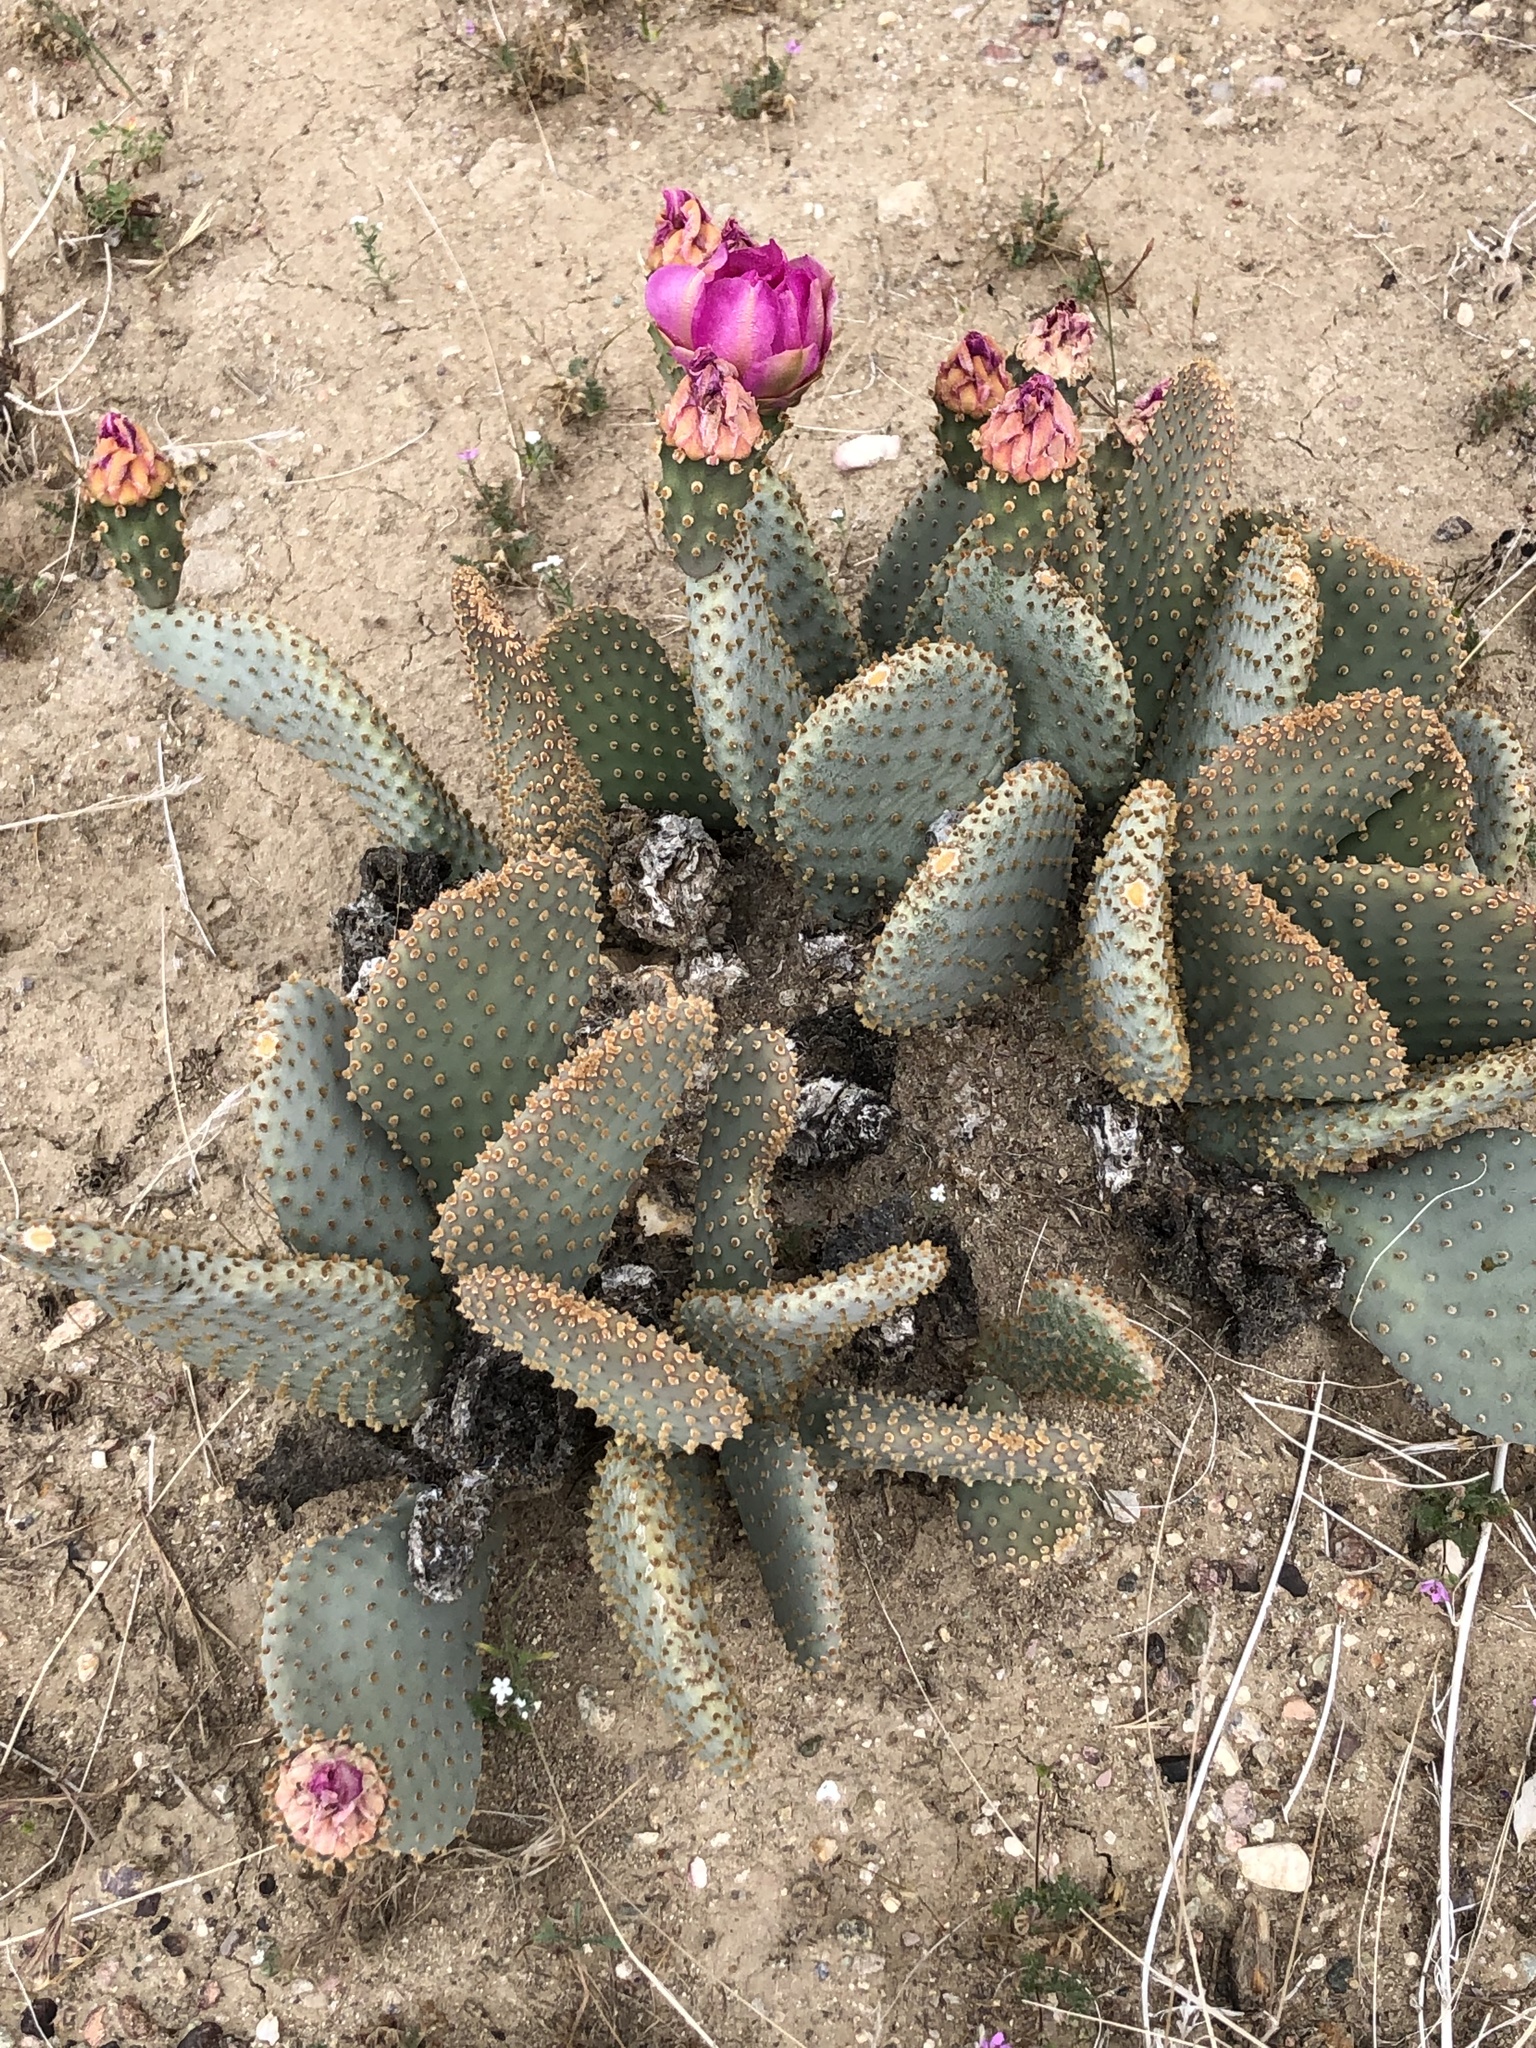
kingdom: Plantae
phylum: Tracheophyta
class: Magnoliopsida
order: Caryophyllales
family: Cactaceae
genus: Opuntia
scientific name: Opuntia basilaris
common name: Beavertail prickly-pear
